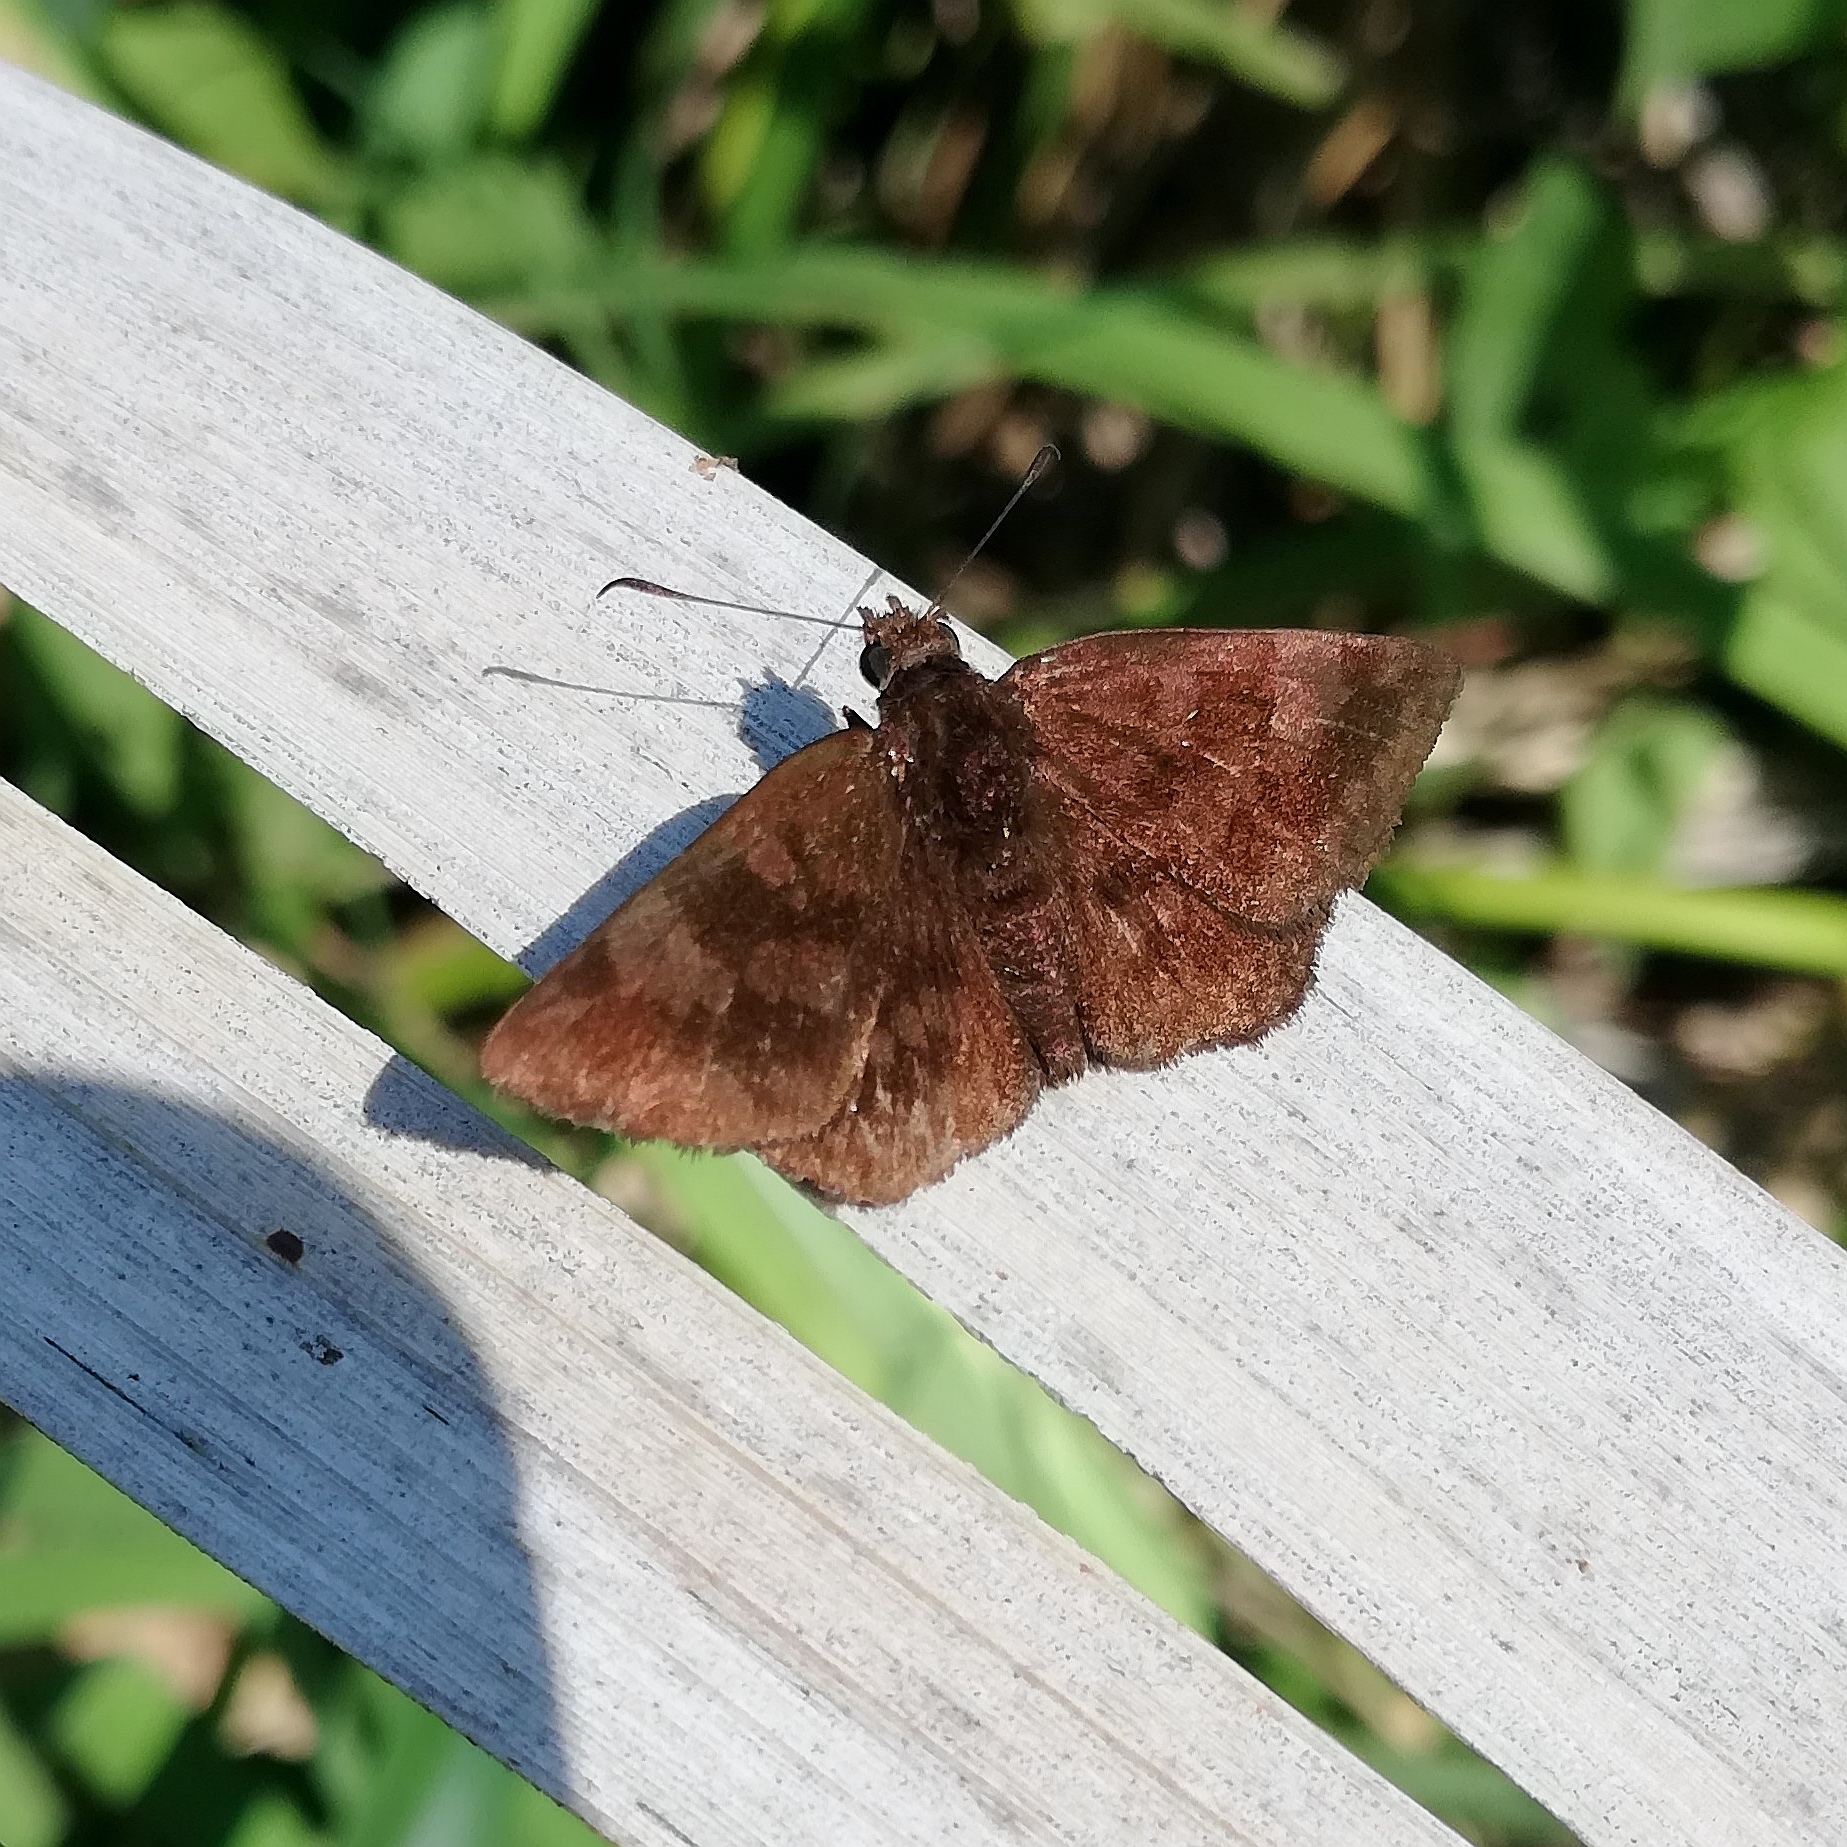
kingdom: Animalia
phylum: Arthropoda
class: Insecta
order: Lepidoptera
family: Hesperiidae
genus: Viola
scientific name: Viola minor
